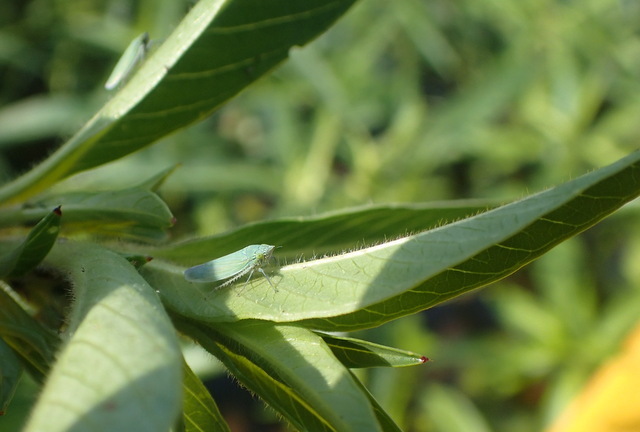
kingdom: Animalia
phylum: Arthropoda
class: Insecta
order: Hemiptera
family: Cicadellidae
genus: Draeculacephala
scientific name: Draeculacephala inscripta
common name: Leafhopper
